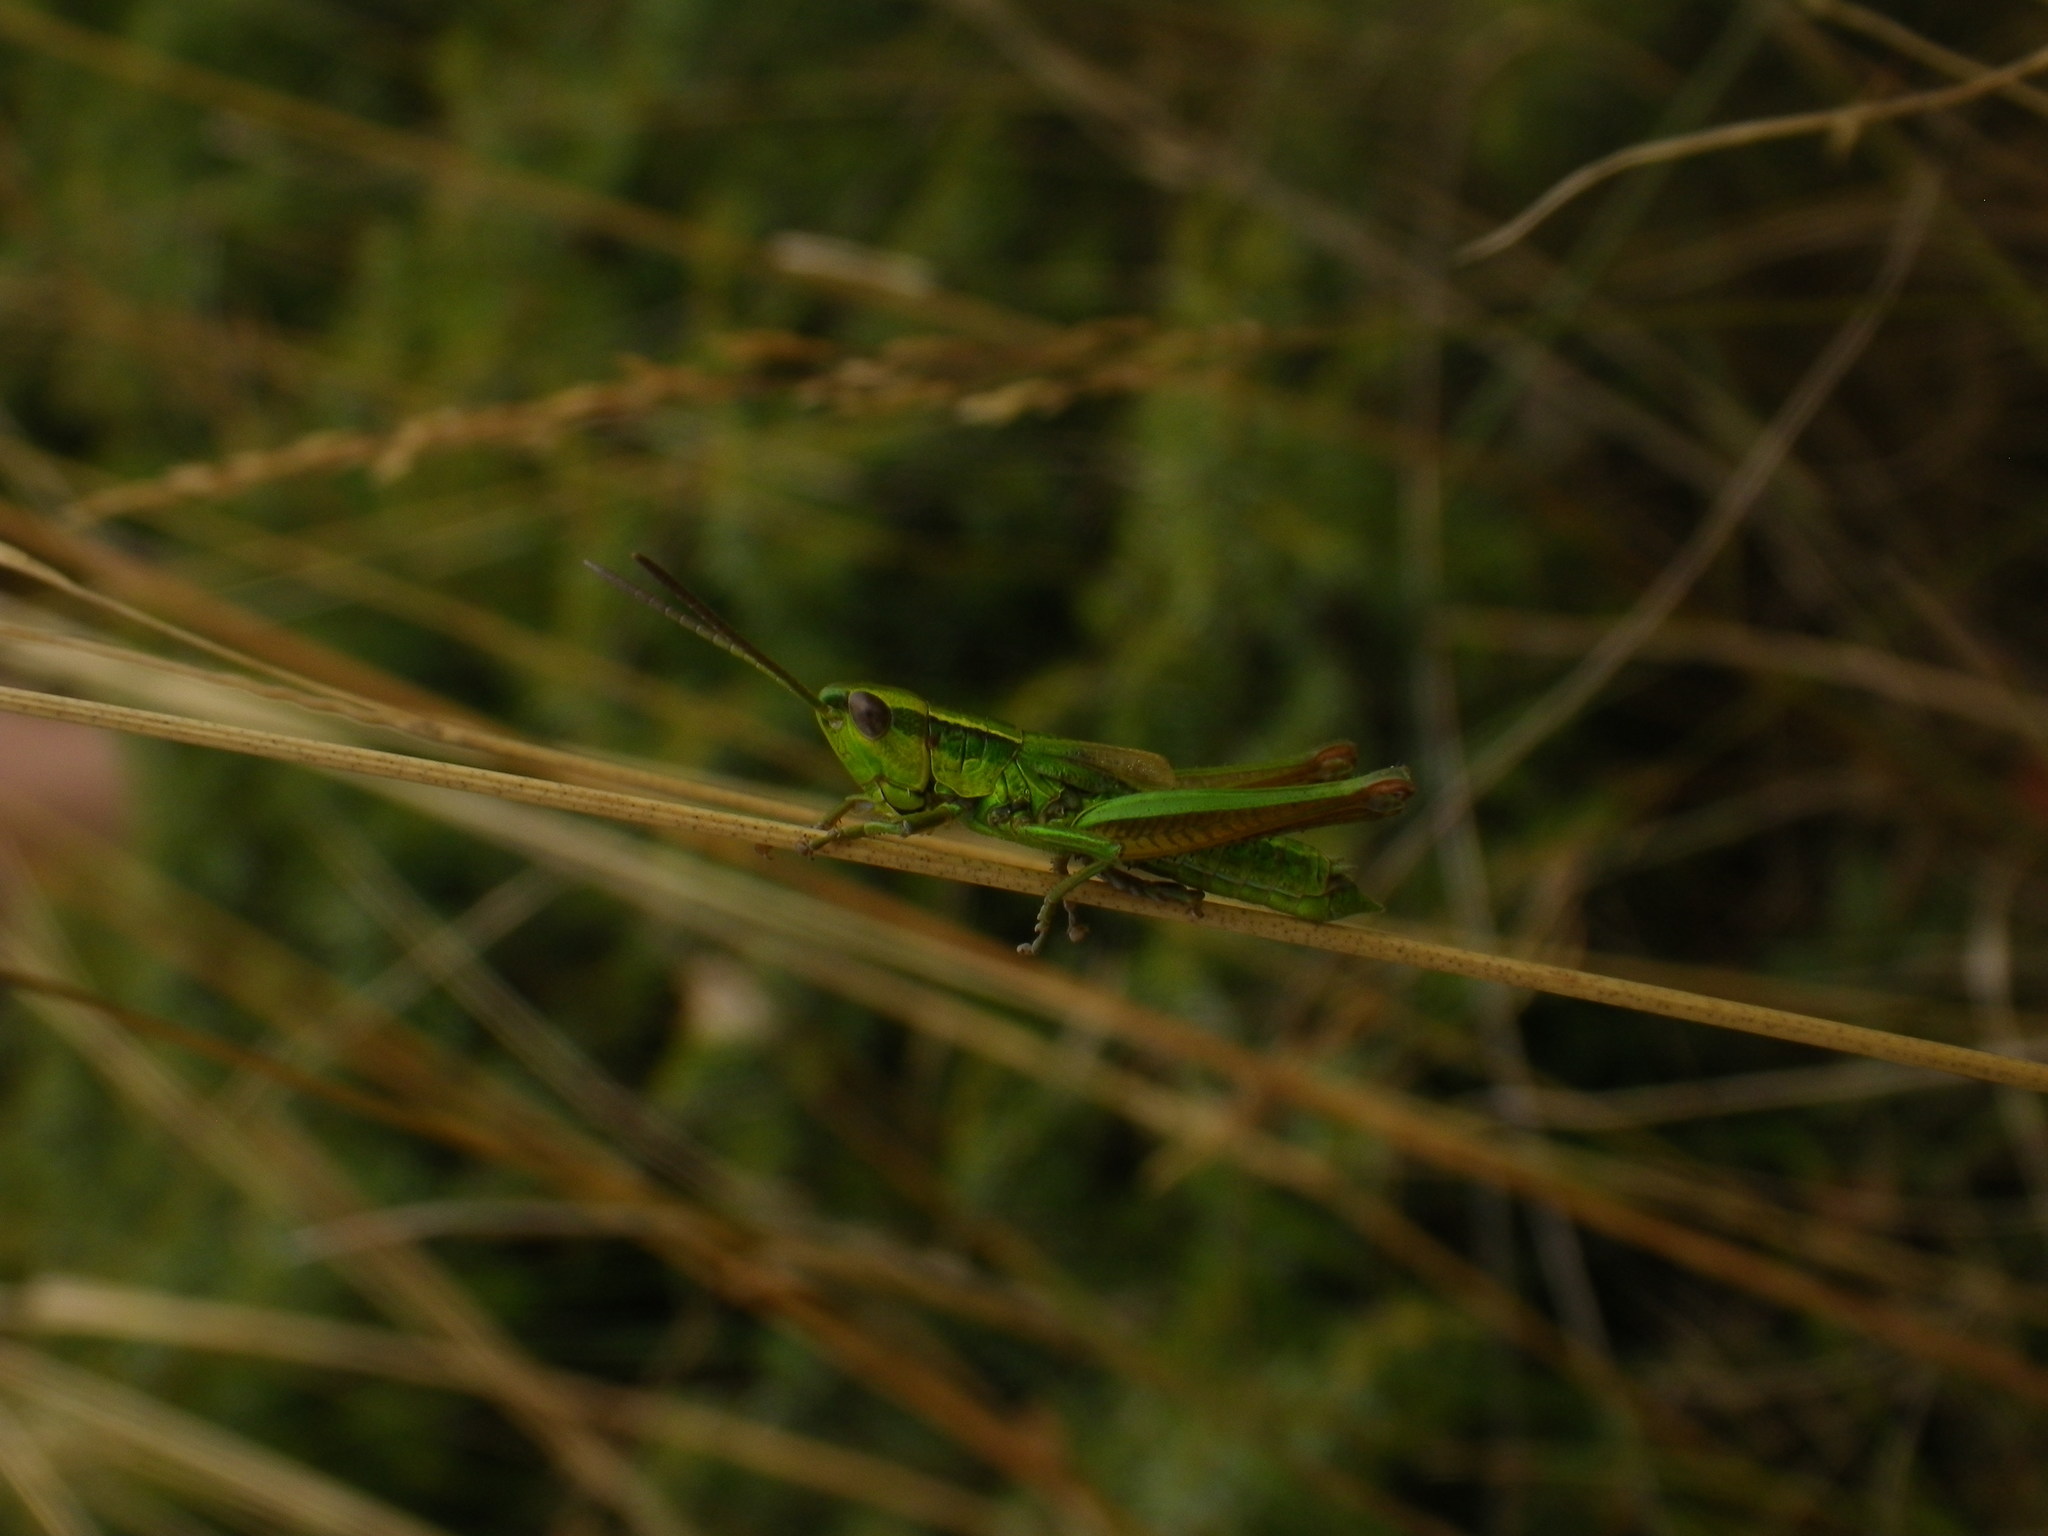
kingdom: Animalia
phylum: Arthropoda
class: Insecta
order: Orthoptera
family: Acrididae
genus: Euthystira
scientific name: Euthystira brachyptera
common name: Small gold grasshopper
